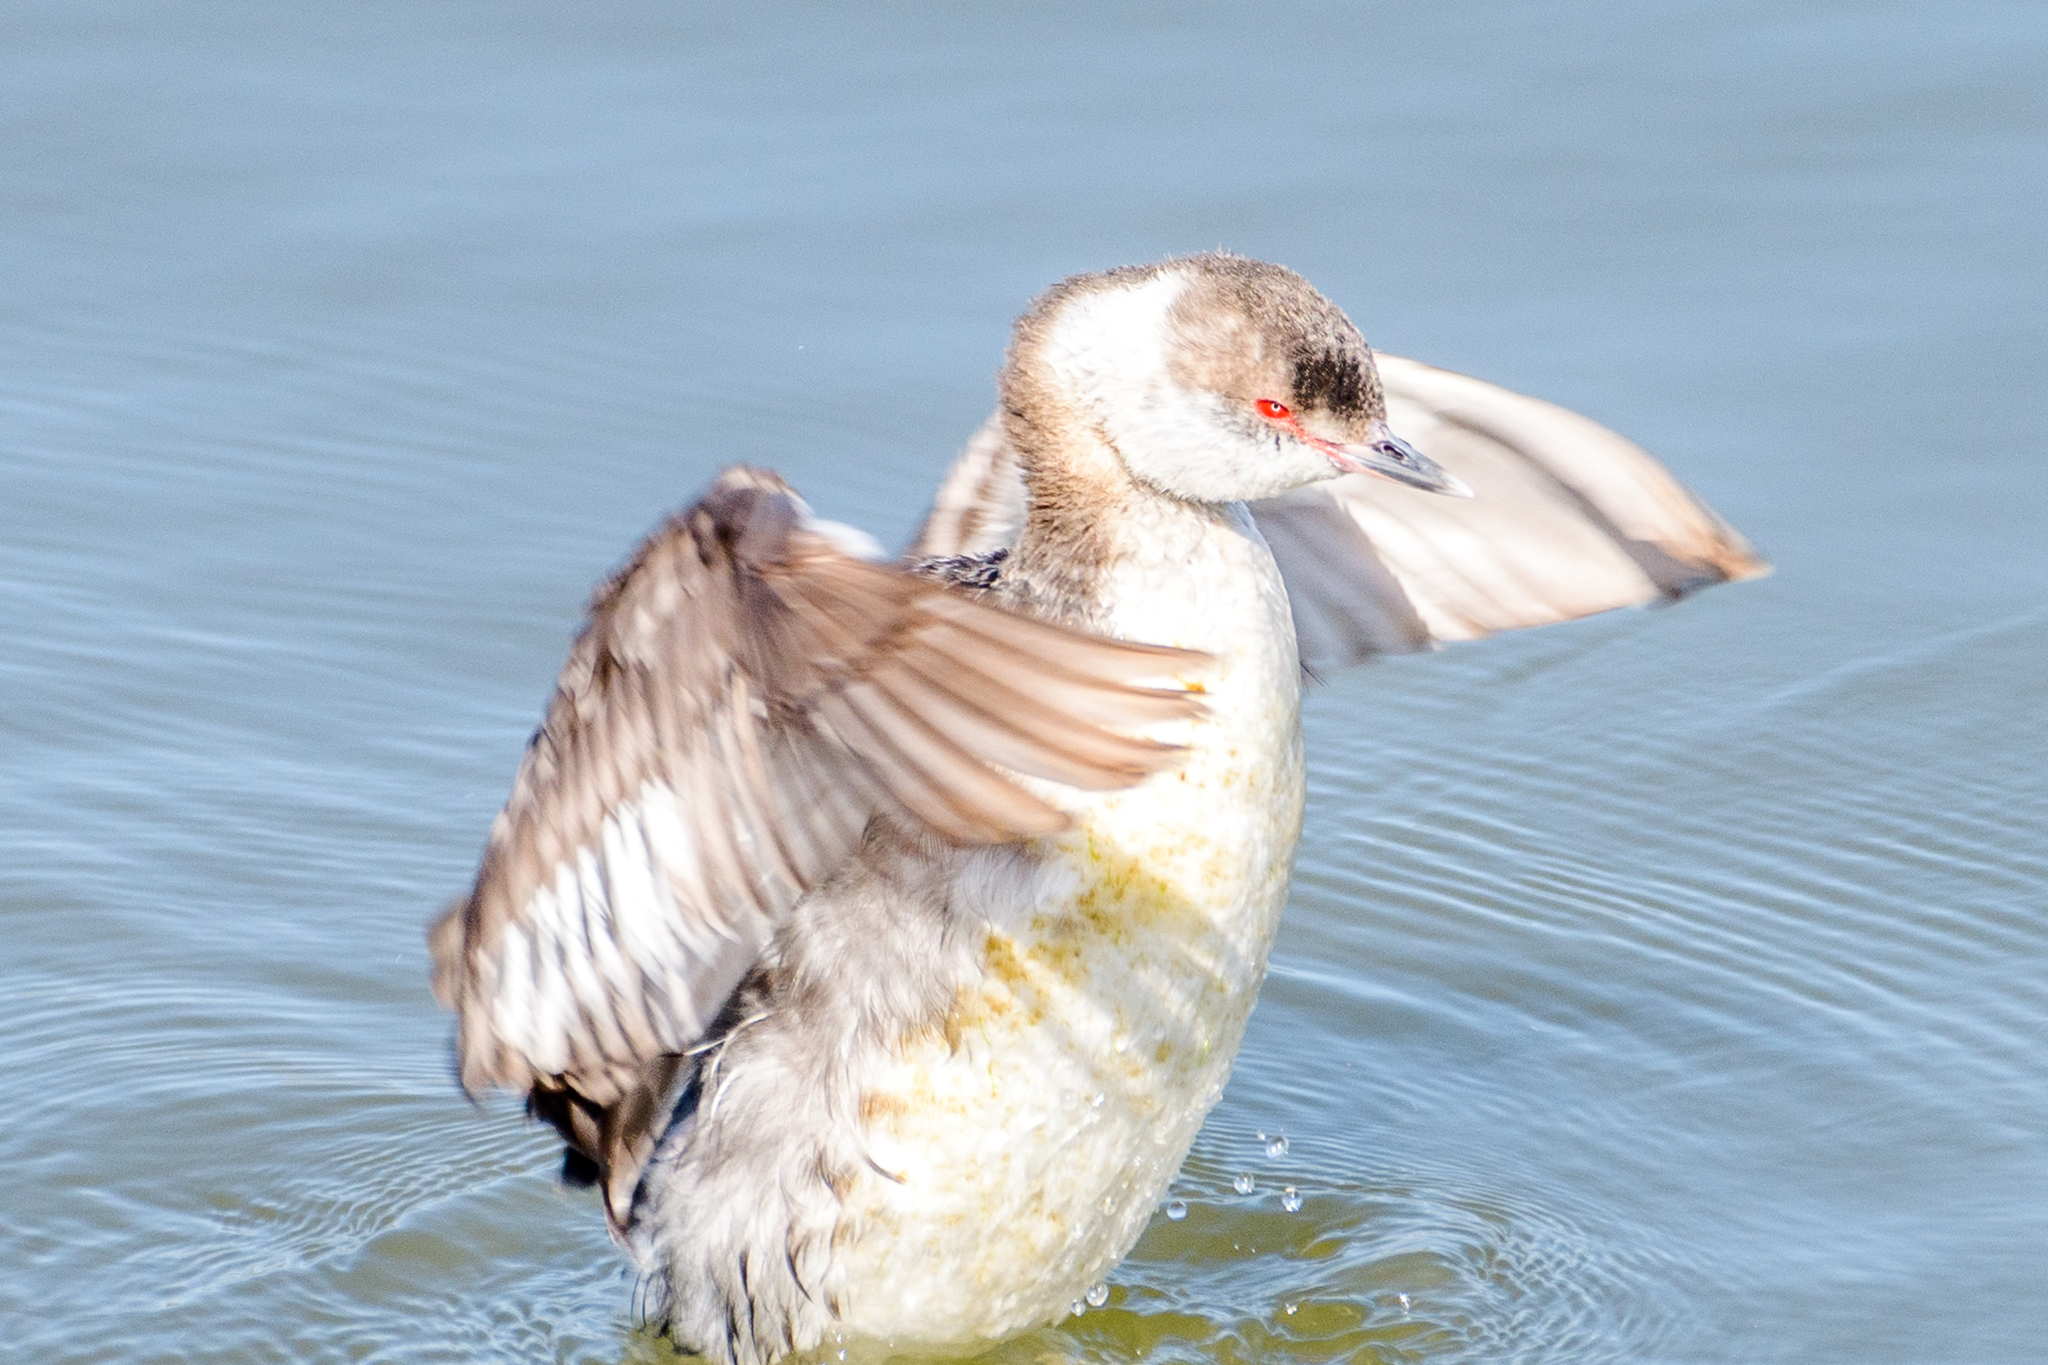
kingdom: Animalia
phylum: Chordata
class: Aves
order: Podicipediformes
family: Podicipedidae
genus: Podiceps
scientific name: Podiceps auritus
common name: Horned grebe
